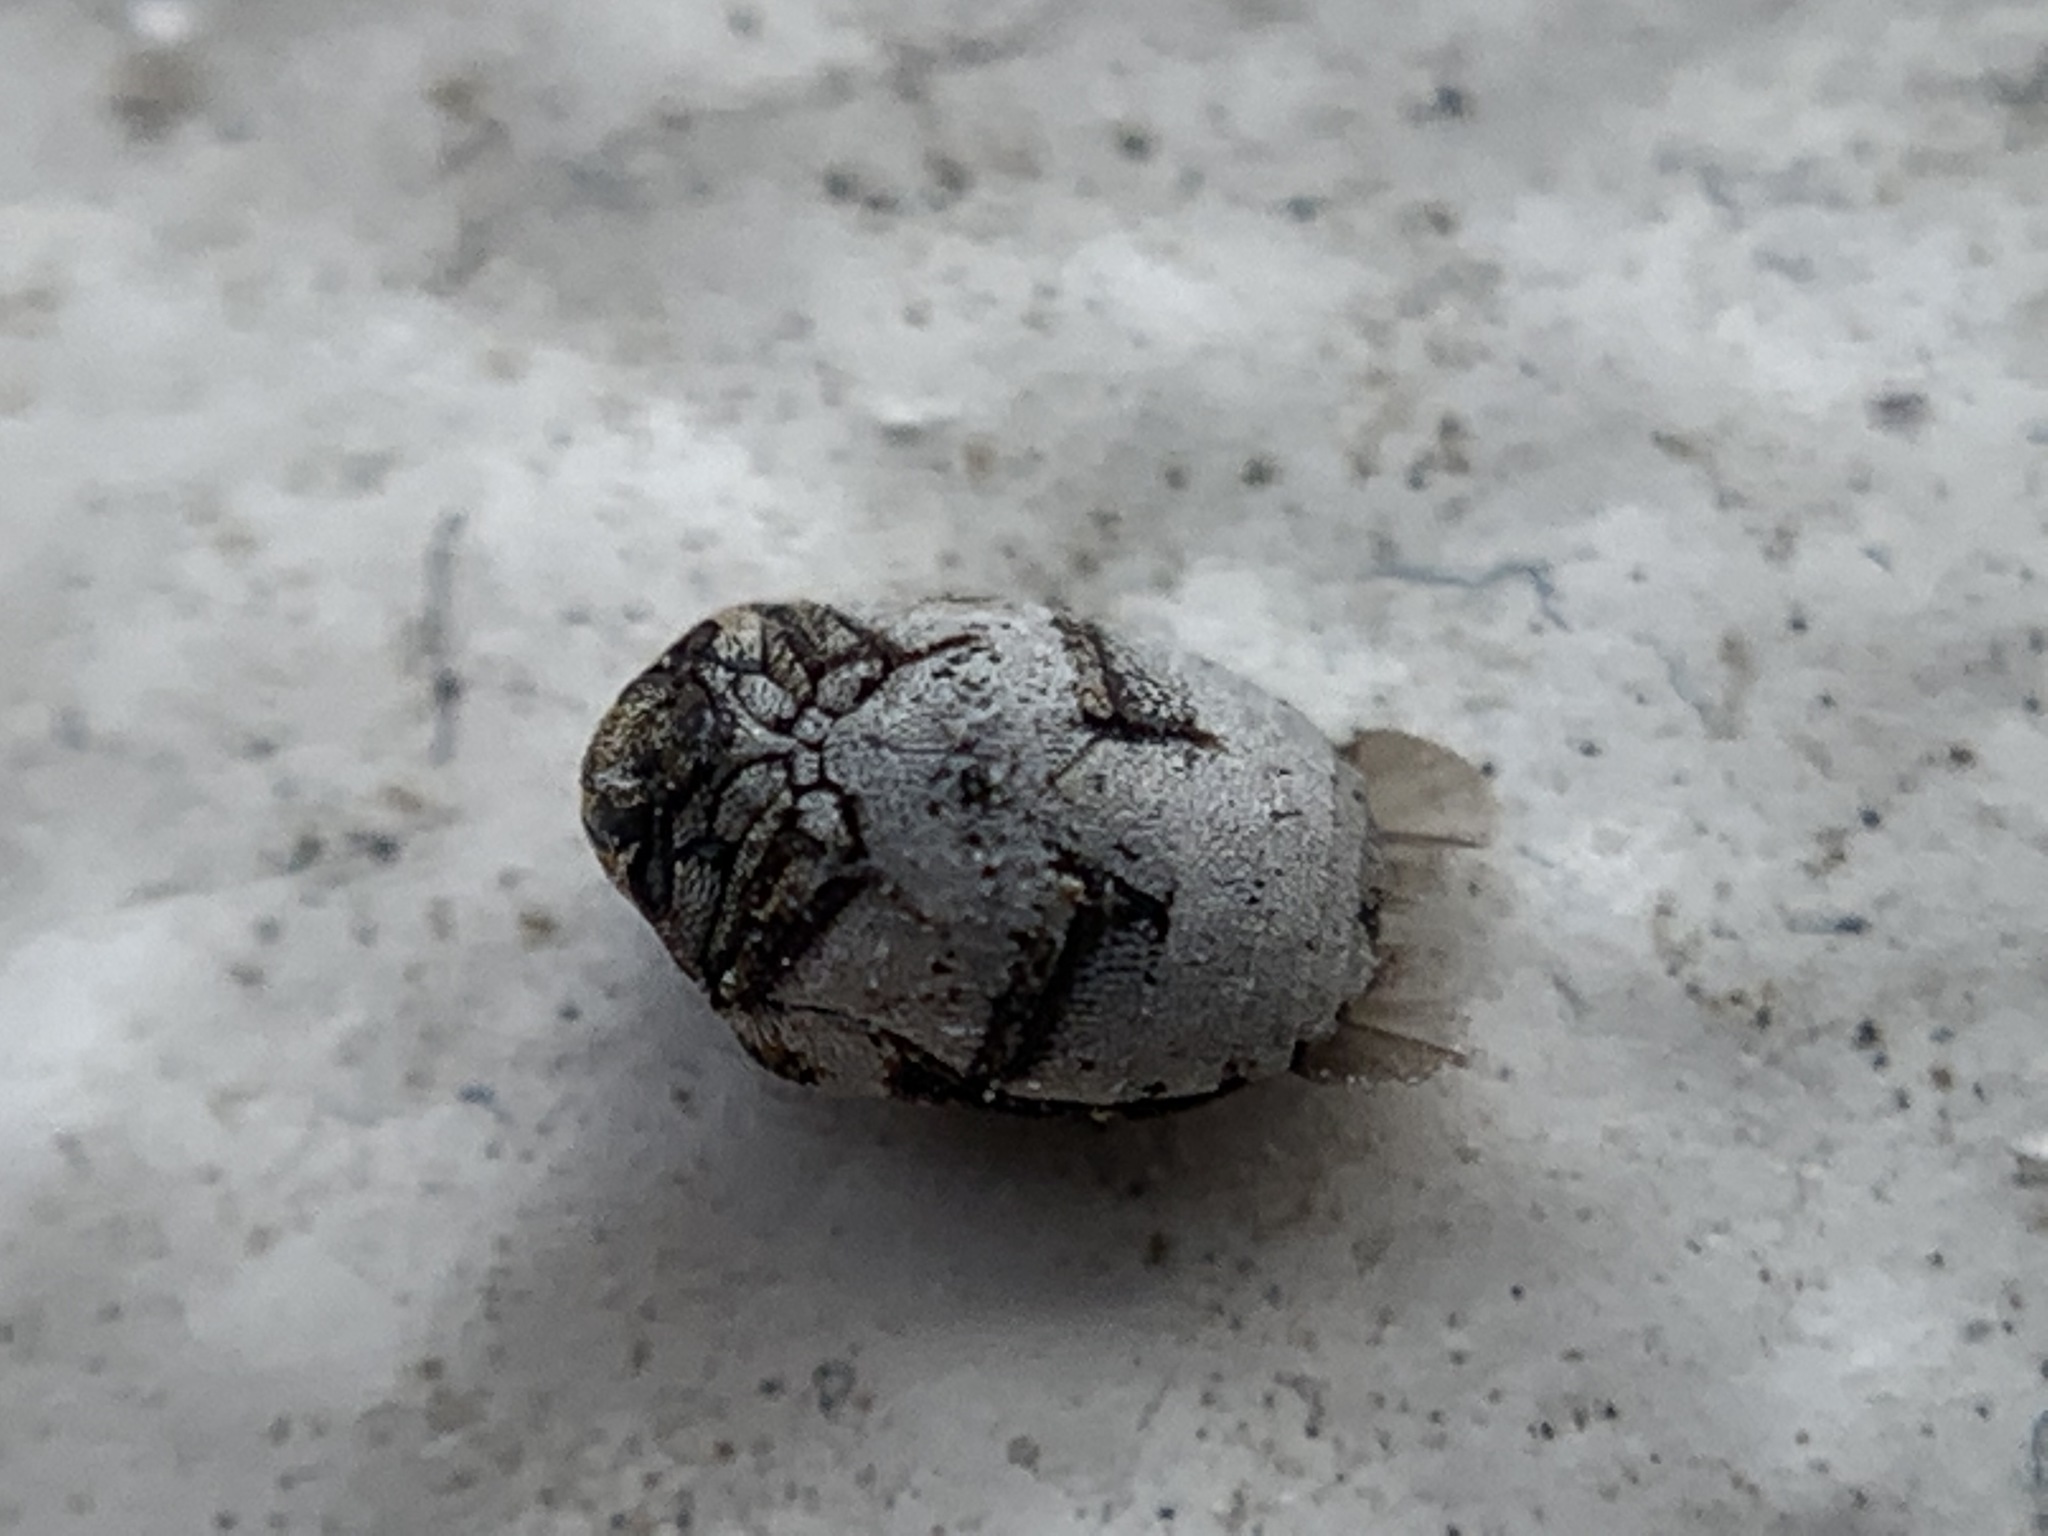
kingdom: Animalia
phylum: Arthropoda
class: Insecta
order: Coleoptera
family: Dermestidae
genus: Anthrenus
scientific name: Anthrenus sophonisba
